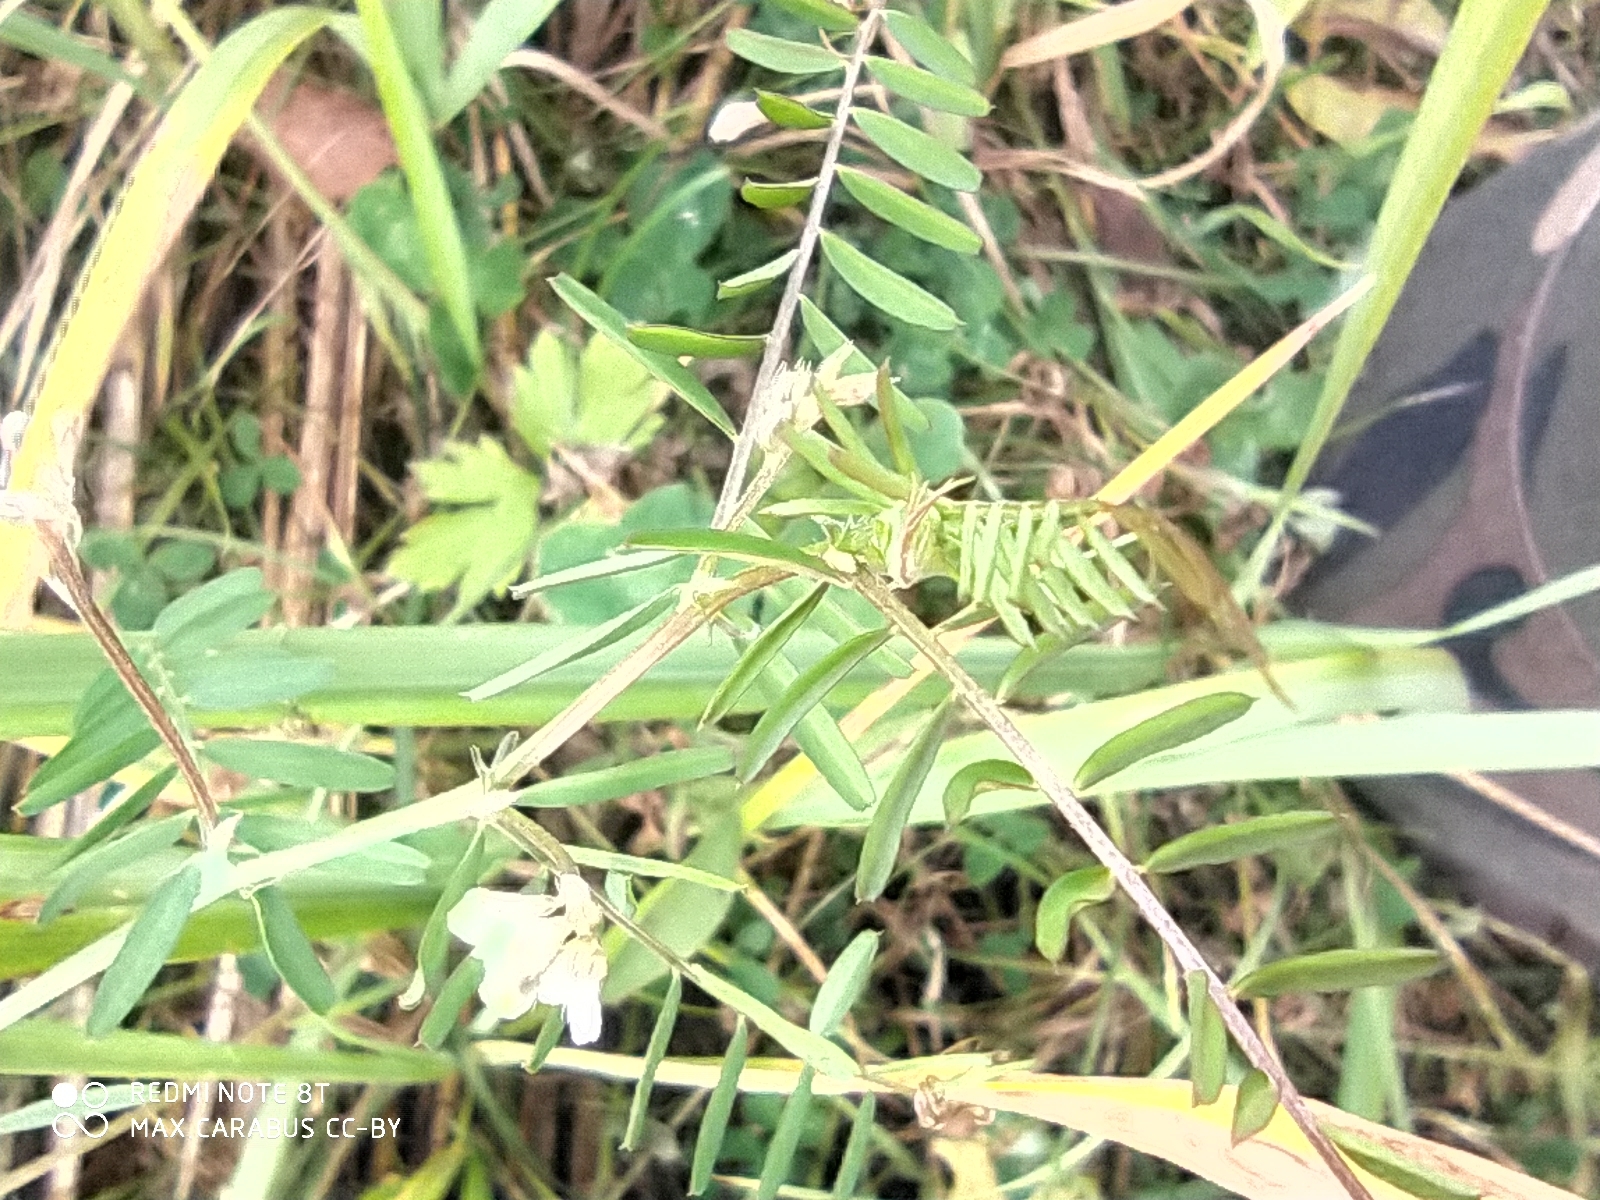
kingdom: Plantae
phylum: Tracheophyta
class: Magnoliopsida
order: Fabales
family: Fabaceae
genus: Vicia
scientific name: Vicia hirsuta
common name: Tiny vetch
